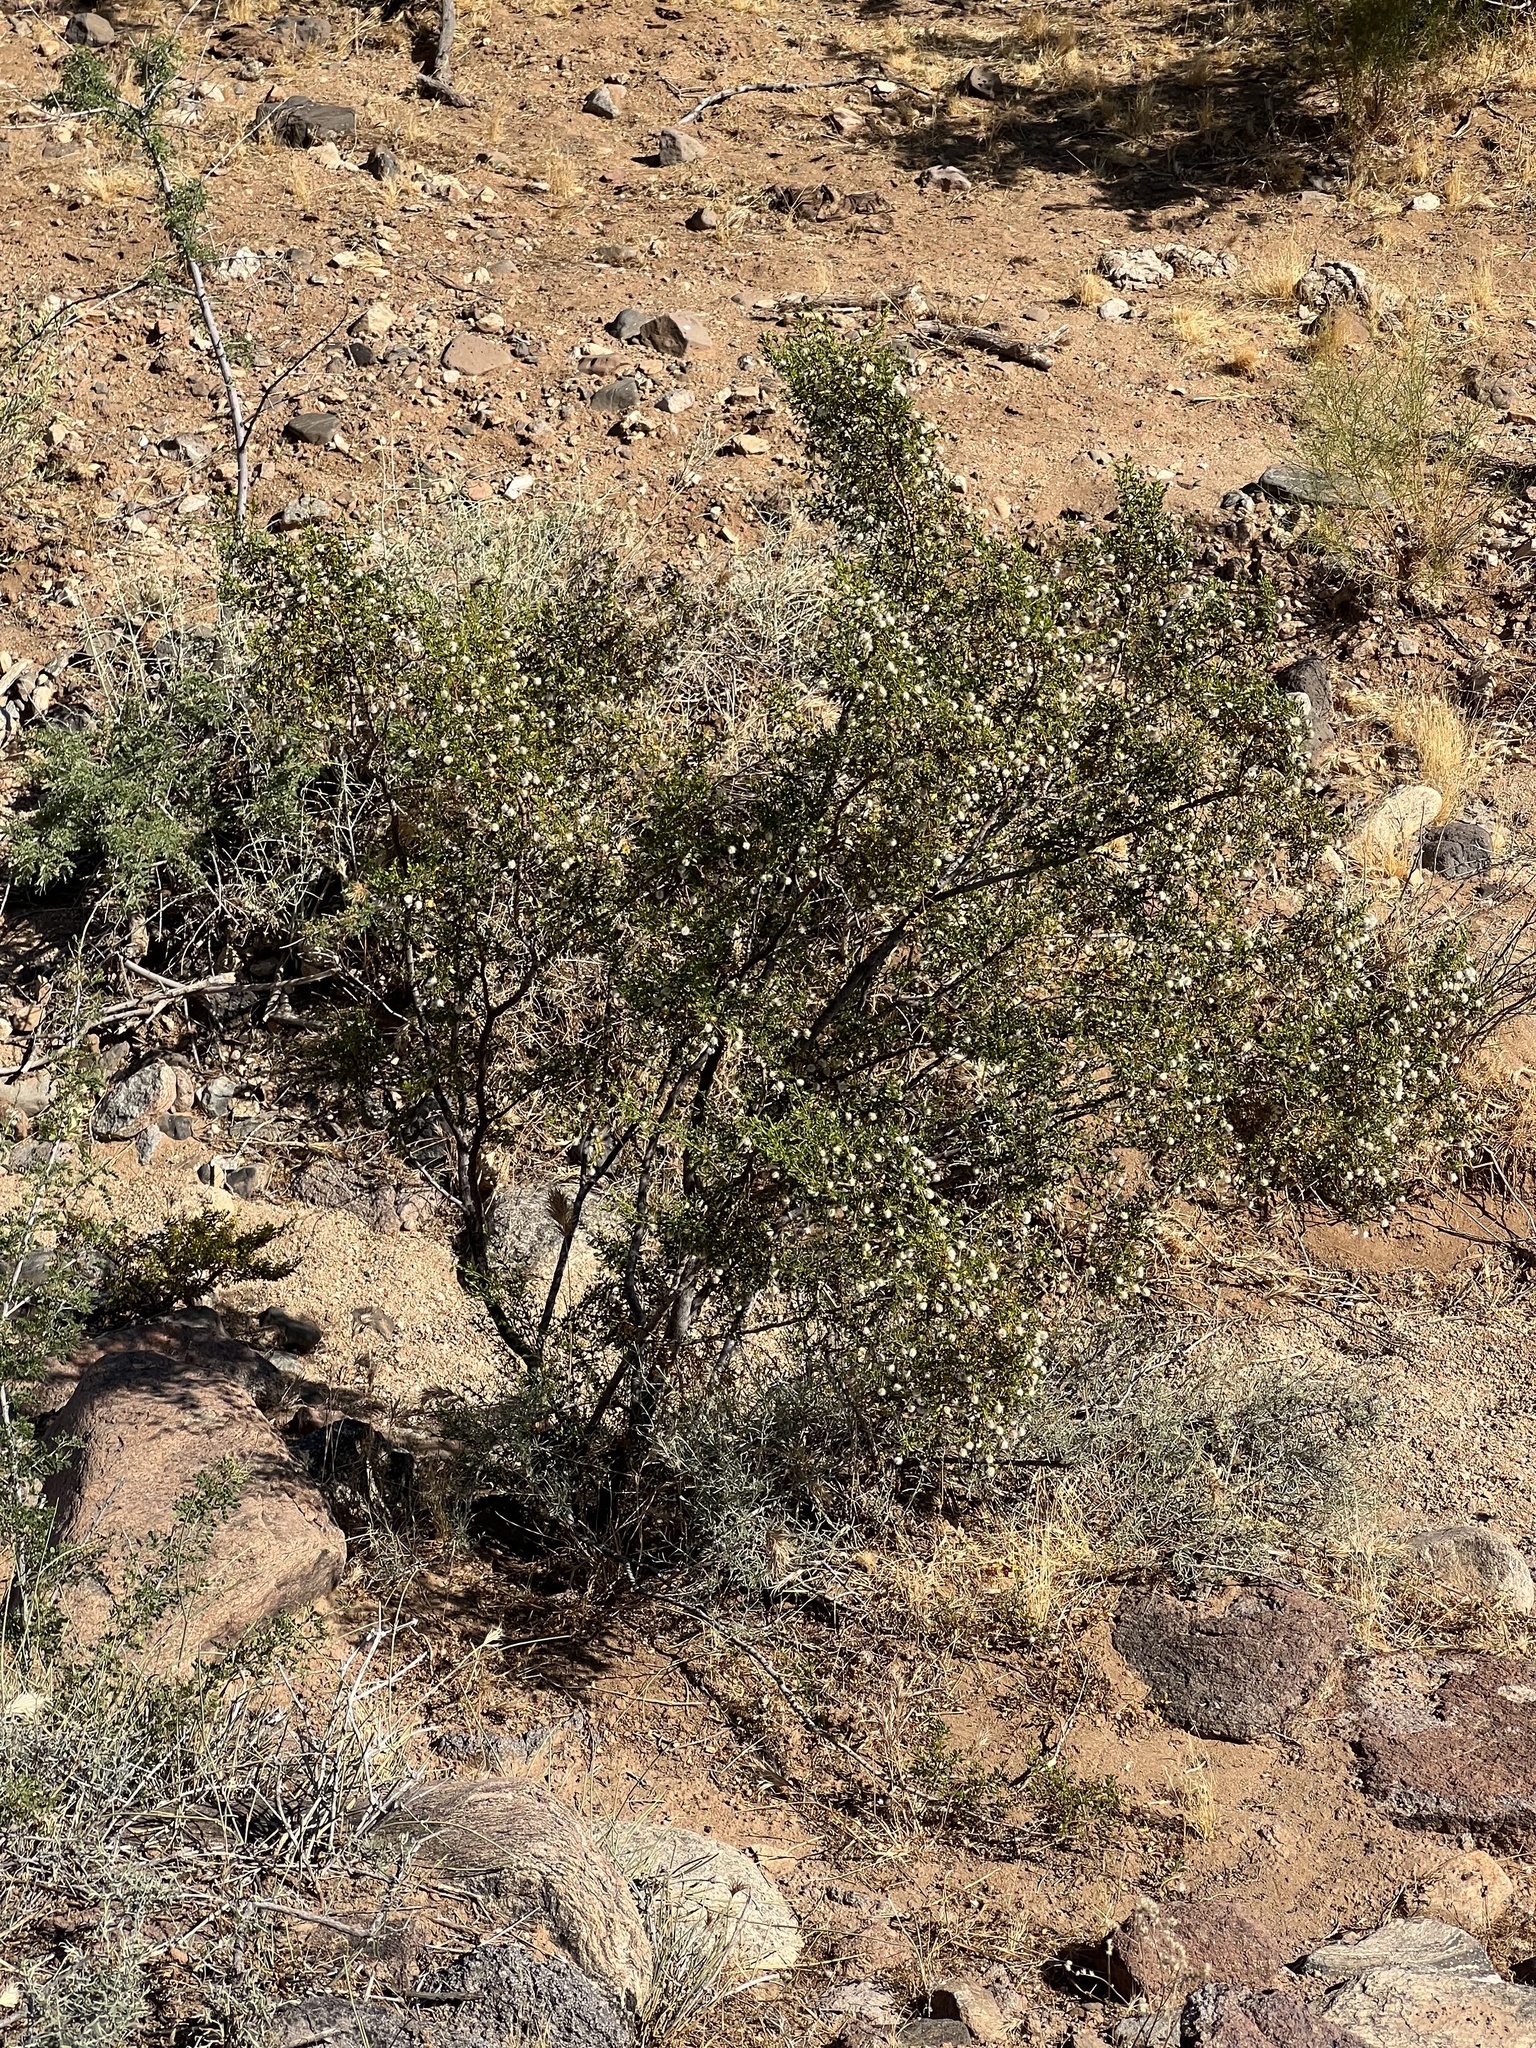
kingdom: Plantae
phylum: Tracheophyta
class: Magnoliopsida
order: Zygophyllales
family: Zygophyllaceae
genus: Larrea
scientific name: Larrea tridentata
